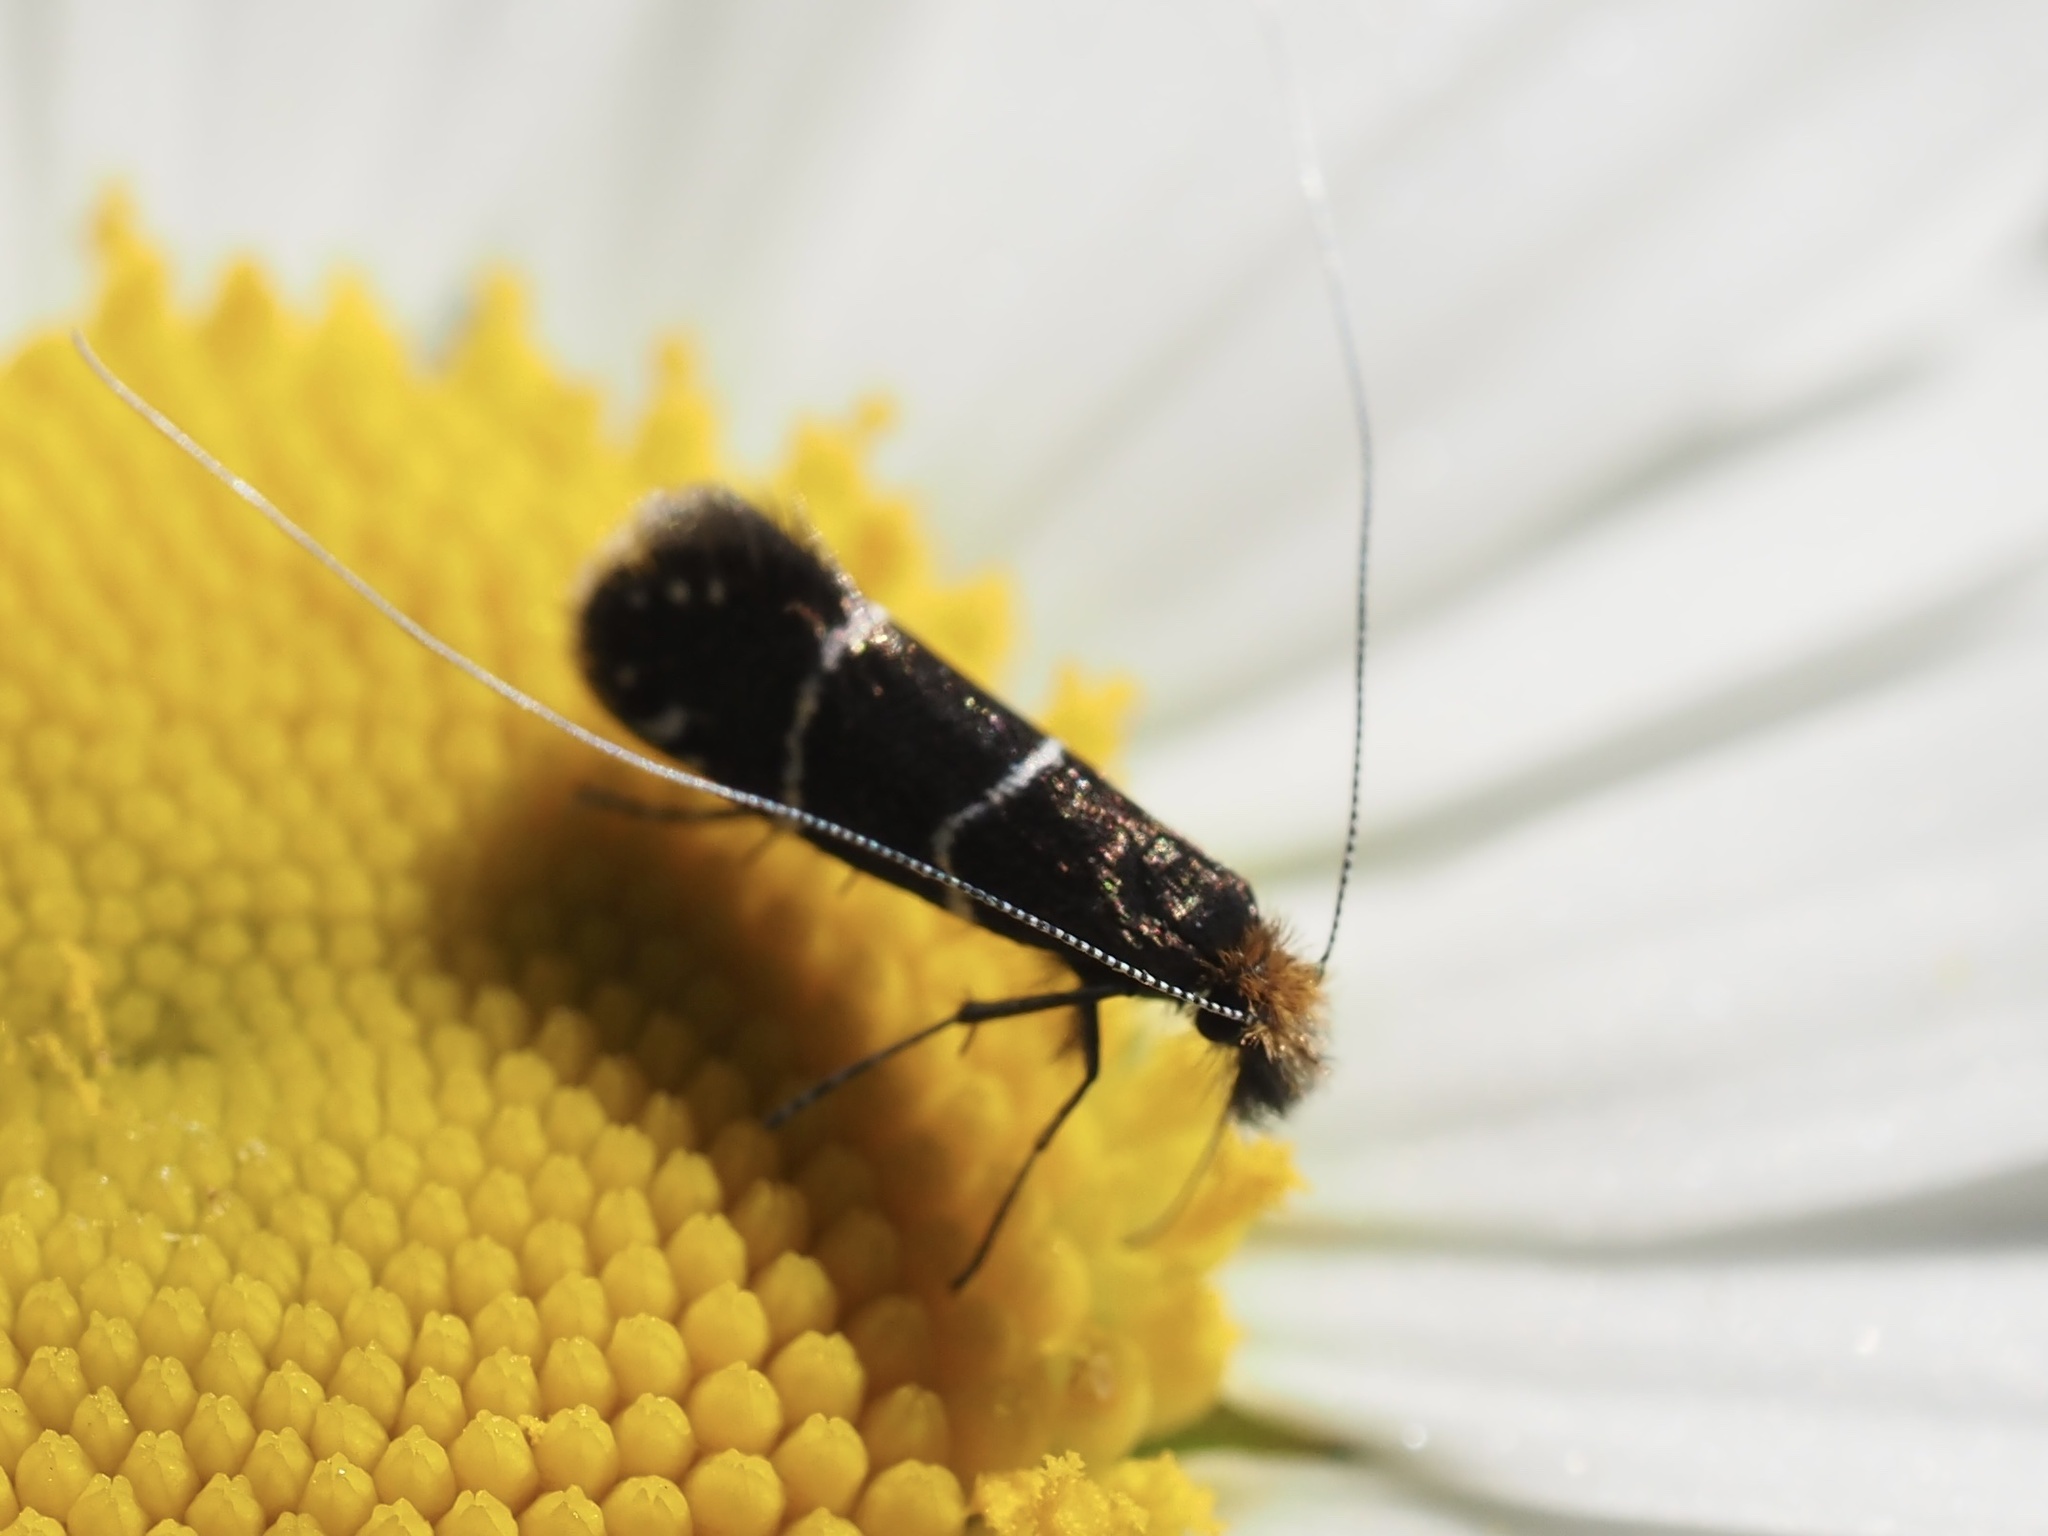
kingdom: Animalia
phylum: Arthropoda
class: Insecta
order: Lepidoptera
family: Adelidae
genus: Adela
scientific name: Adela septentrionella
